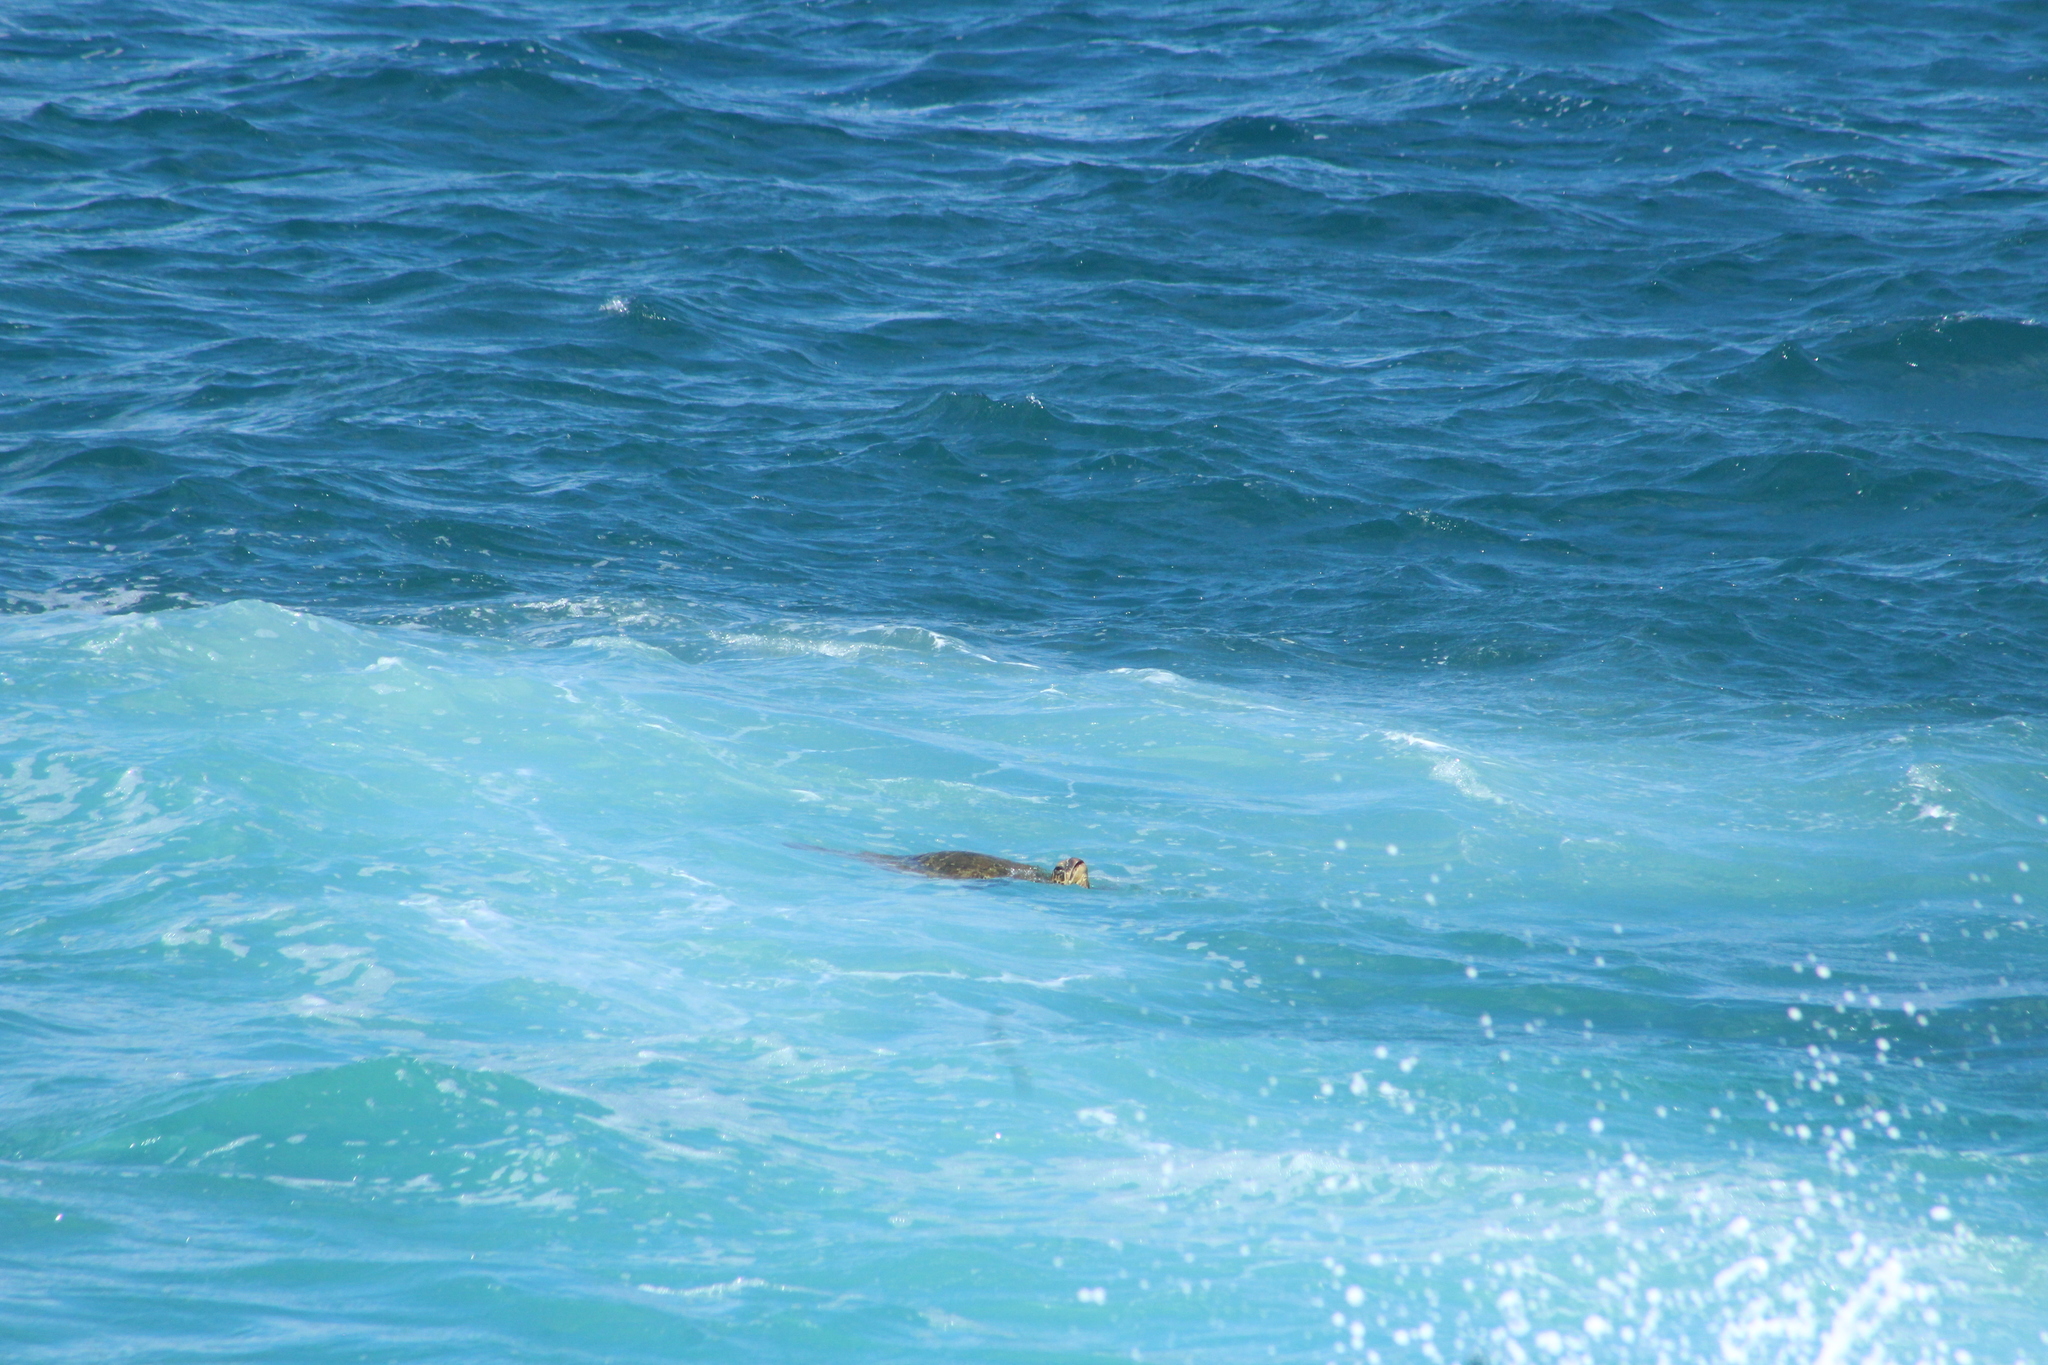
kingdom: Animalia
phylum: Chordata
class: Testudines
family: Cheloniidae
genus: Chelonia
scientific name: Chelonia mydas
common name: Green turtle
